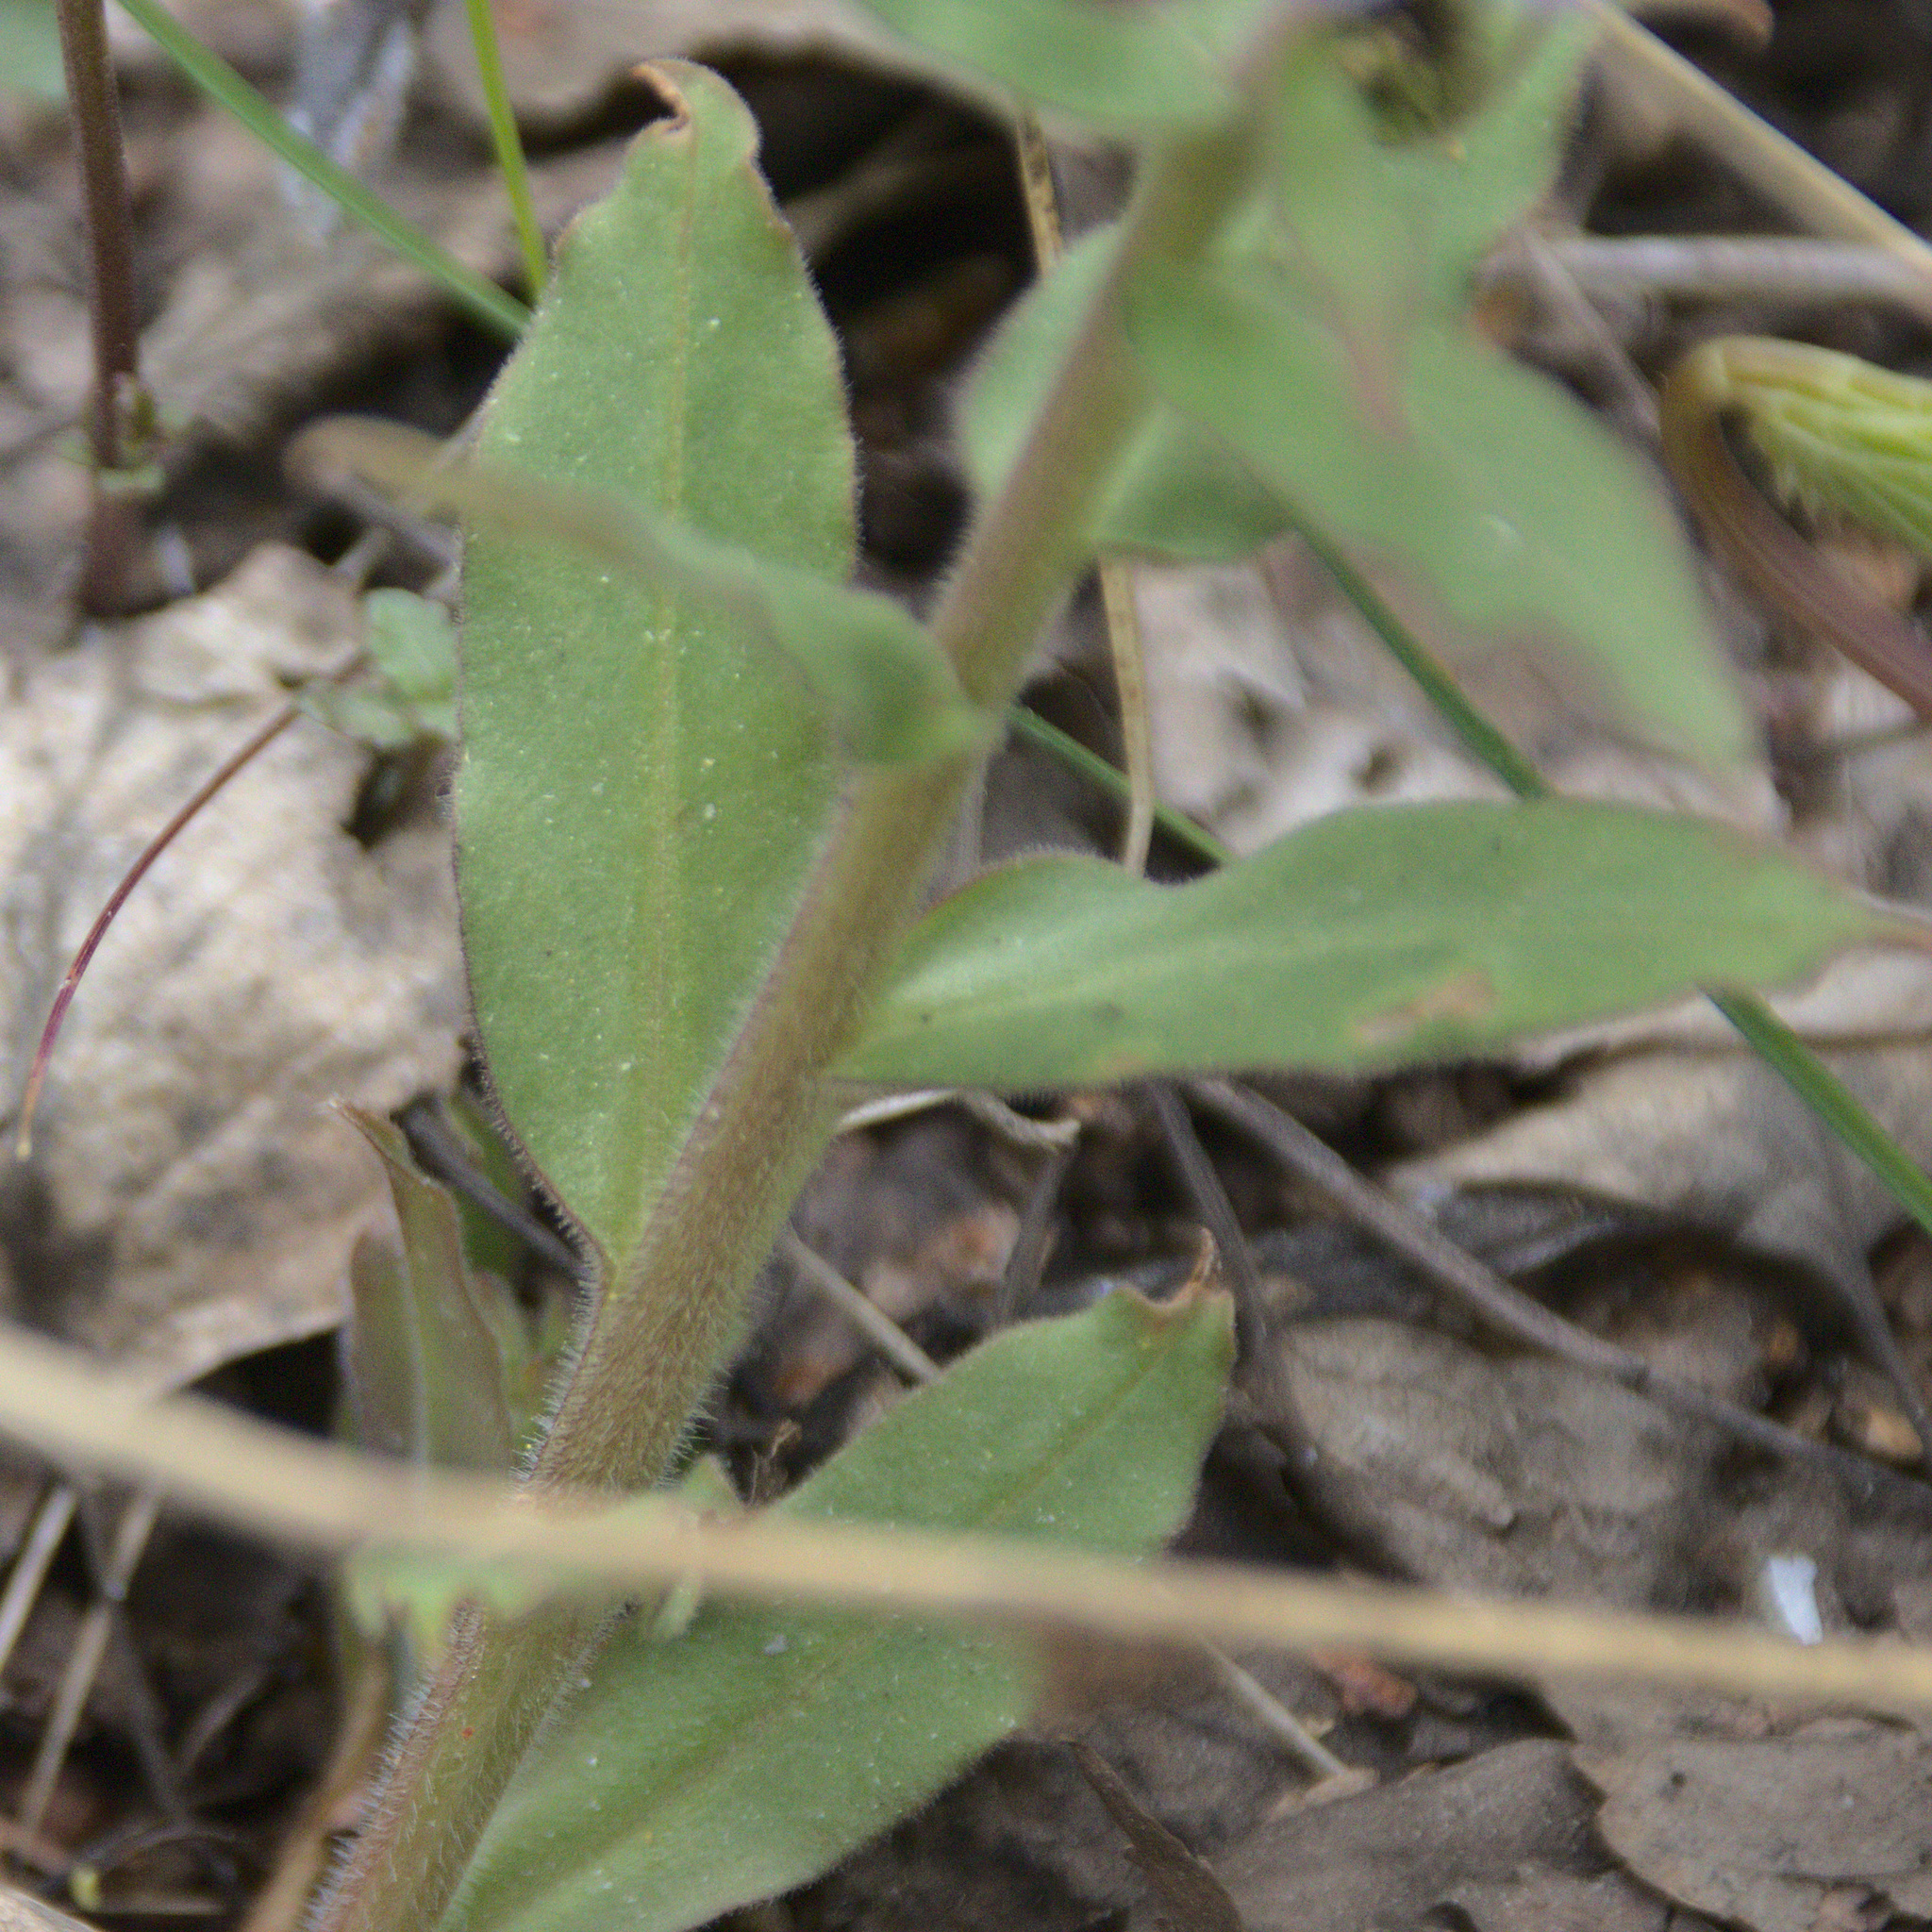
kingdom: Plantae
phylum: Tracheophyta
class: Magnoliopsida
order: Boraginales
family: Boraginaceae
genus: Pulmonaria
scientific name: Pulmonaria mollis
